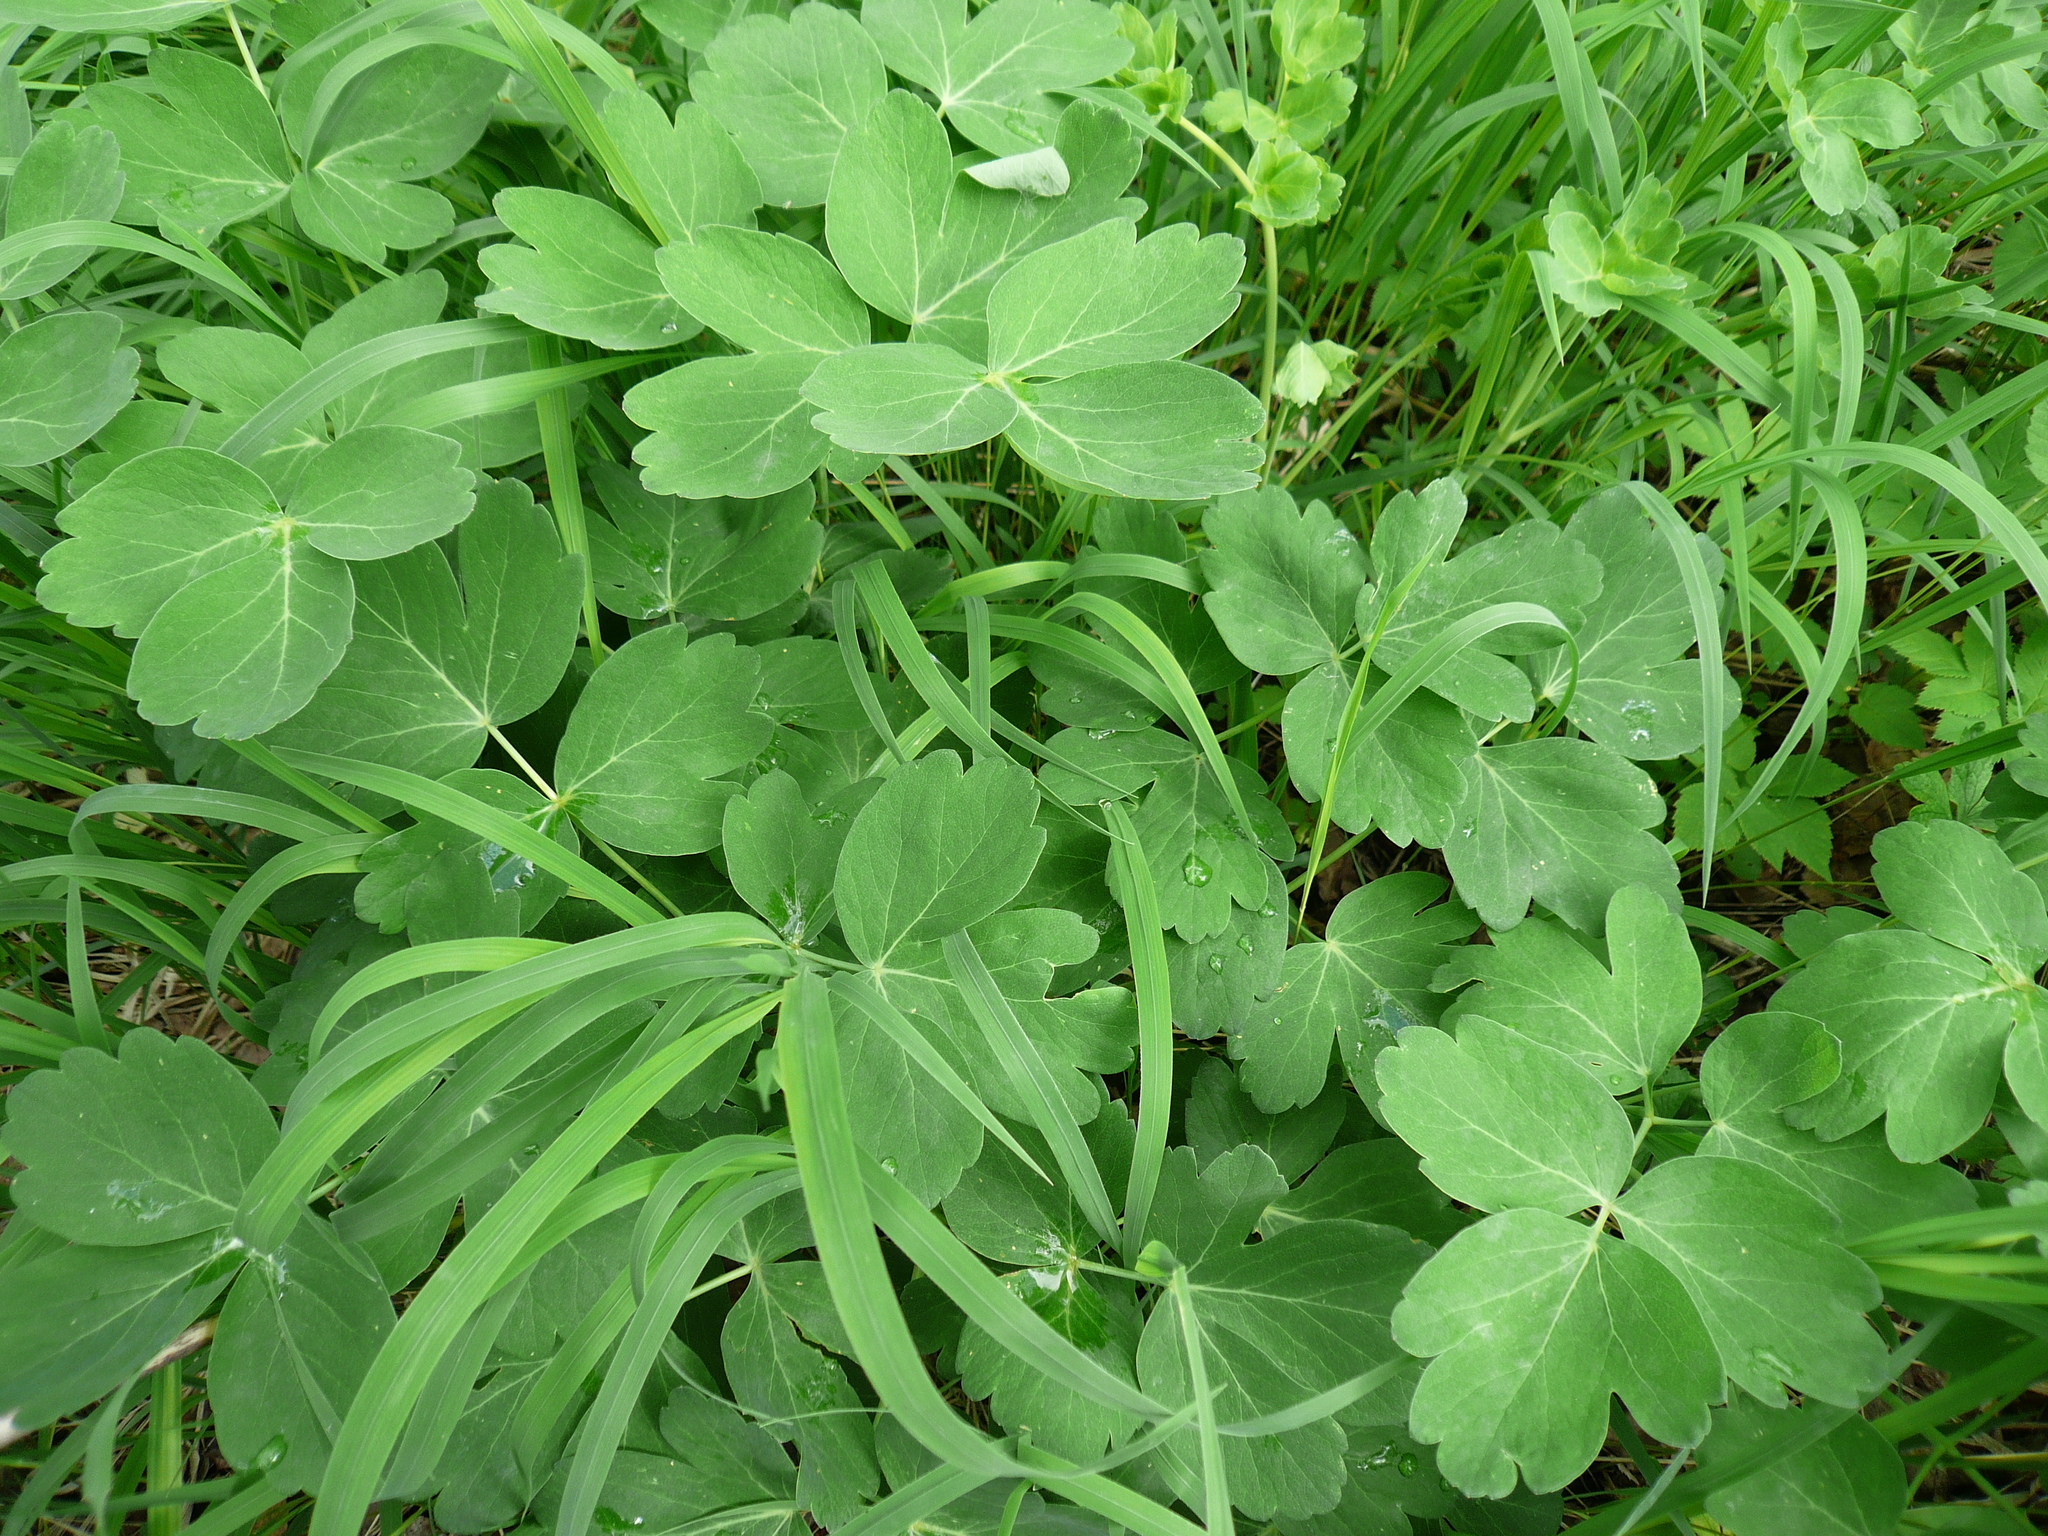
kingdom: Plantae
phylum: Tracheophyta
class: Magnoliopsida
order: Apiales
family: Apiaceae
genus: Laser
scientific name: Laser trilobum
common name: Laser
